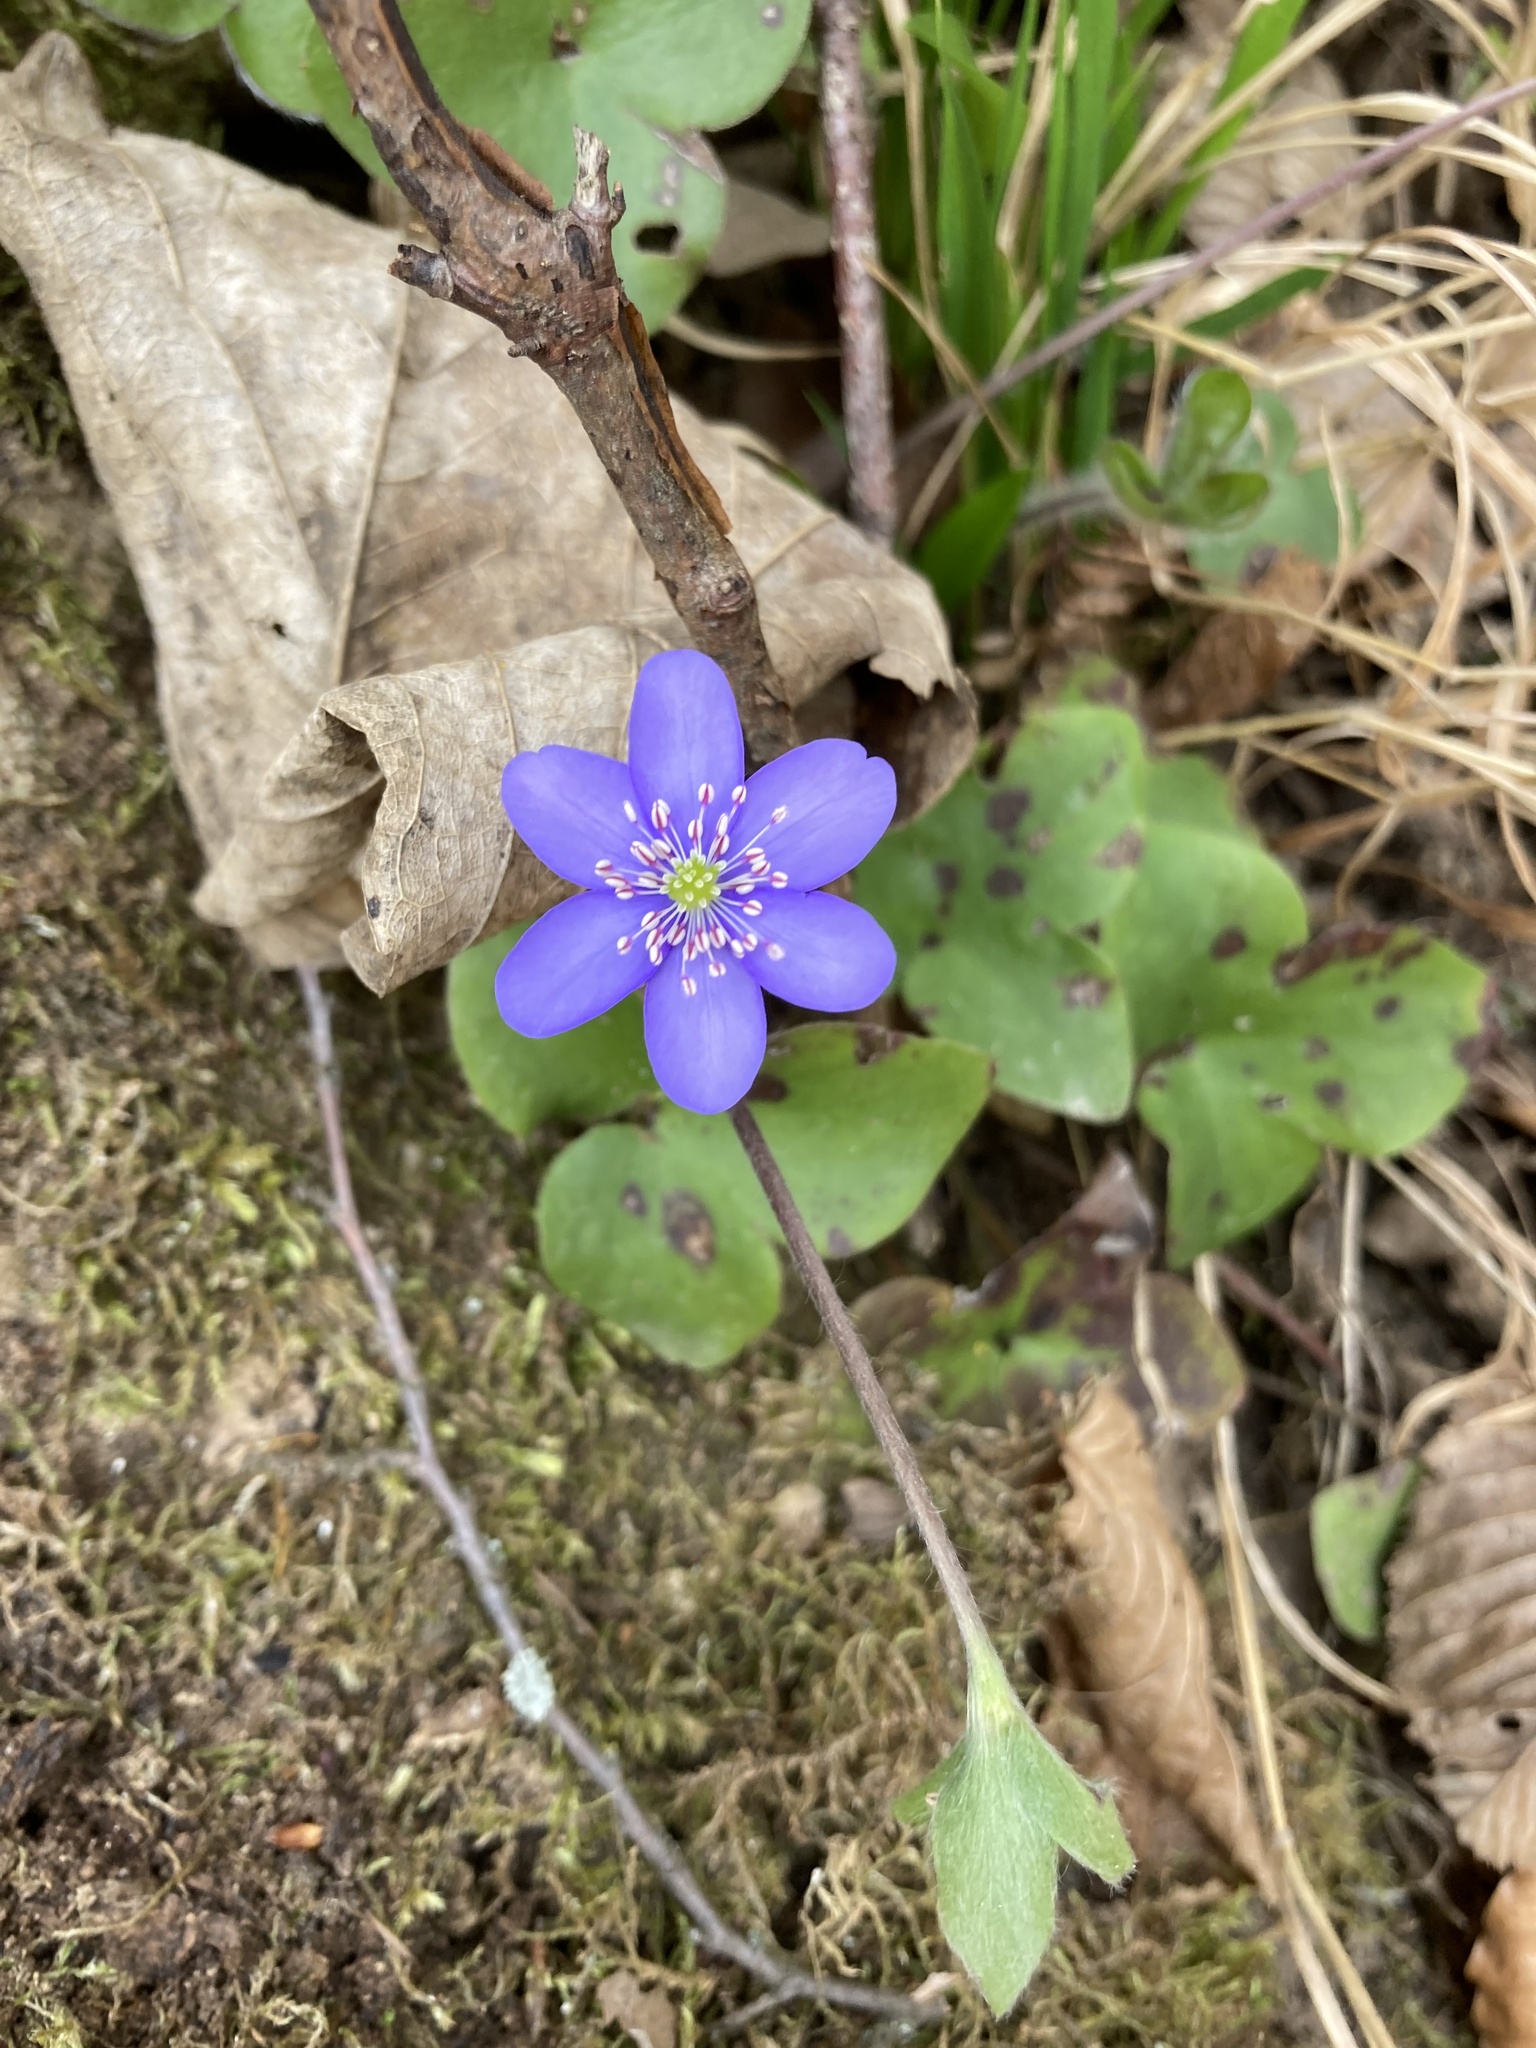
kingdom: Plantae
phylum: Tracheophyta
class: Magnoliopsida
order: Ranunculales
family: Ranunculaceae
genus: Hepatica
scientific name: Hepatica nobilis
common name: Liverleaf
